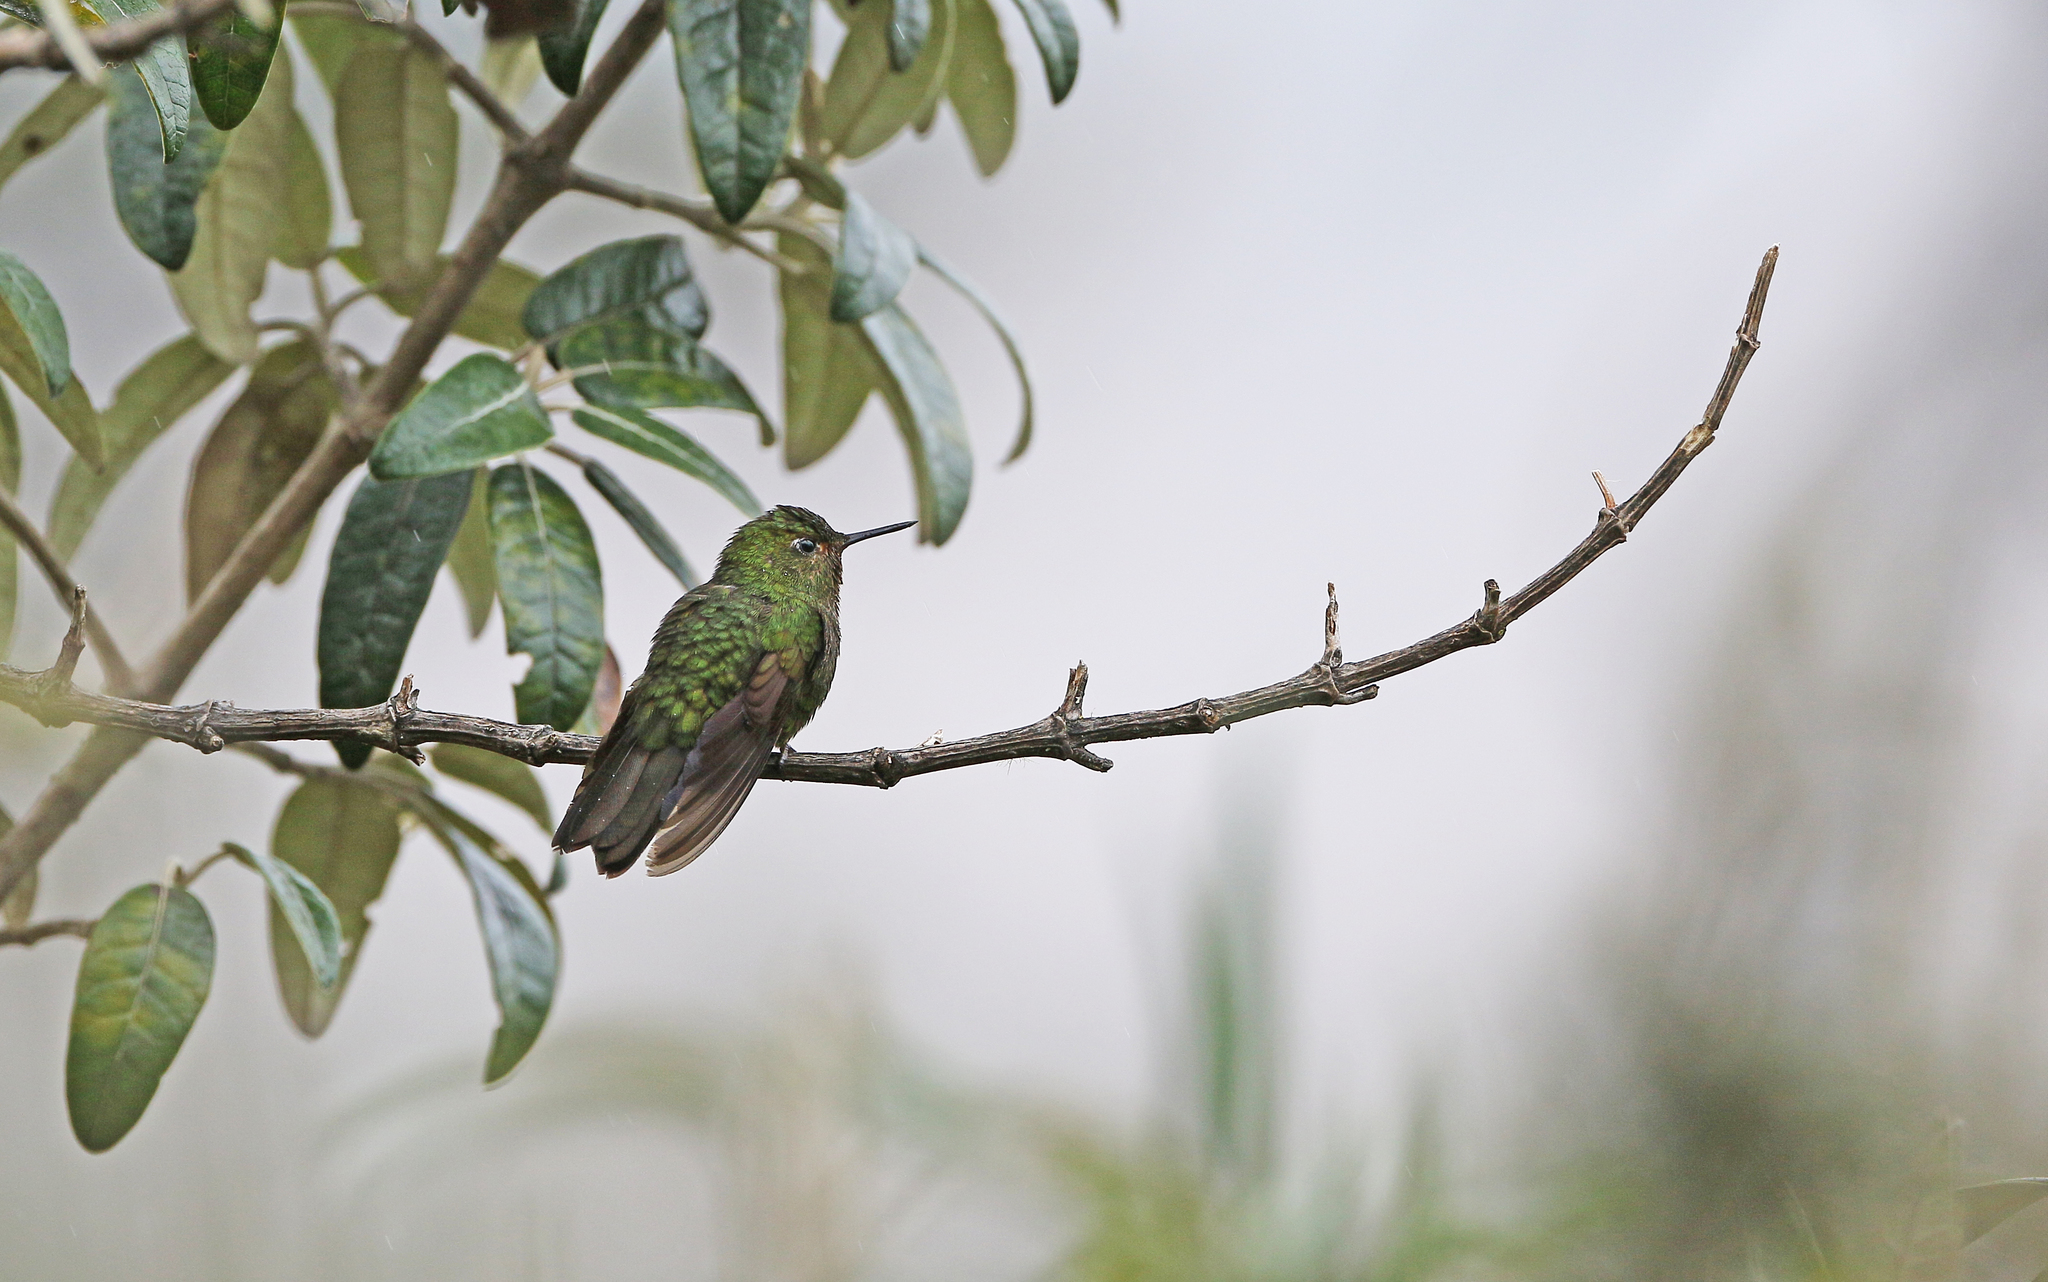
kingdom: Animalia
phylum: Chordata
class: Aves
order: Apodiformes
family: Trochilidae
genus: Metallura
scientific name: Metallura williami
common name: Viridian metaltail
